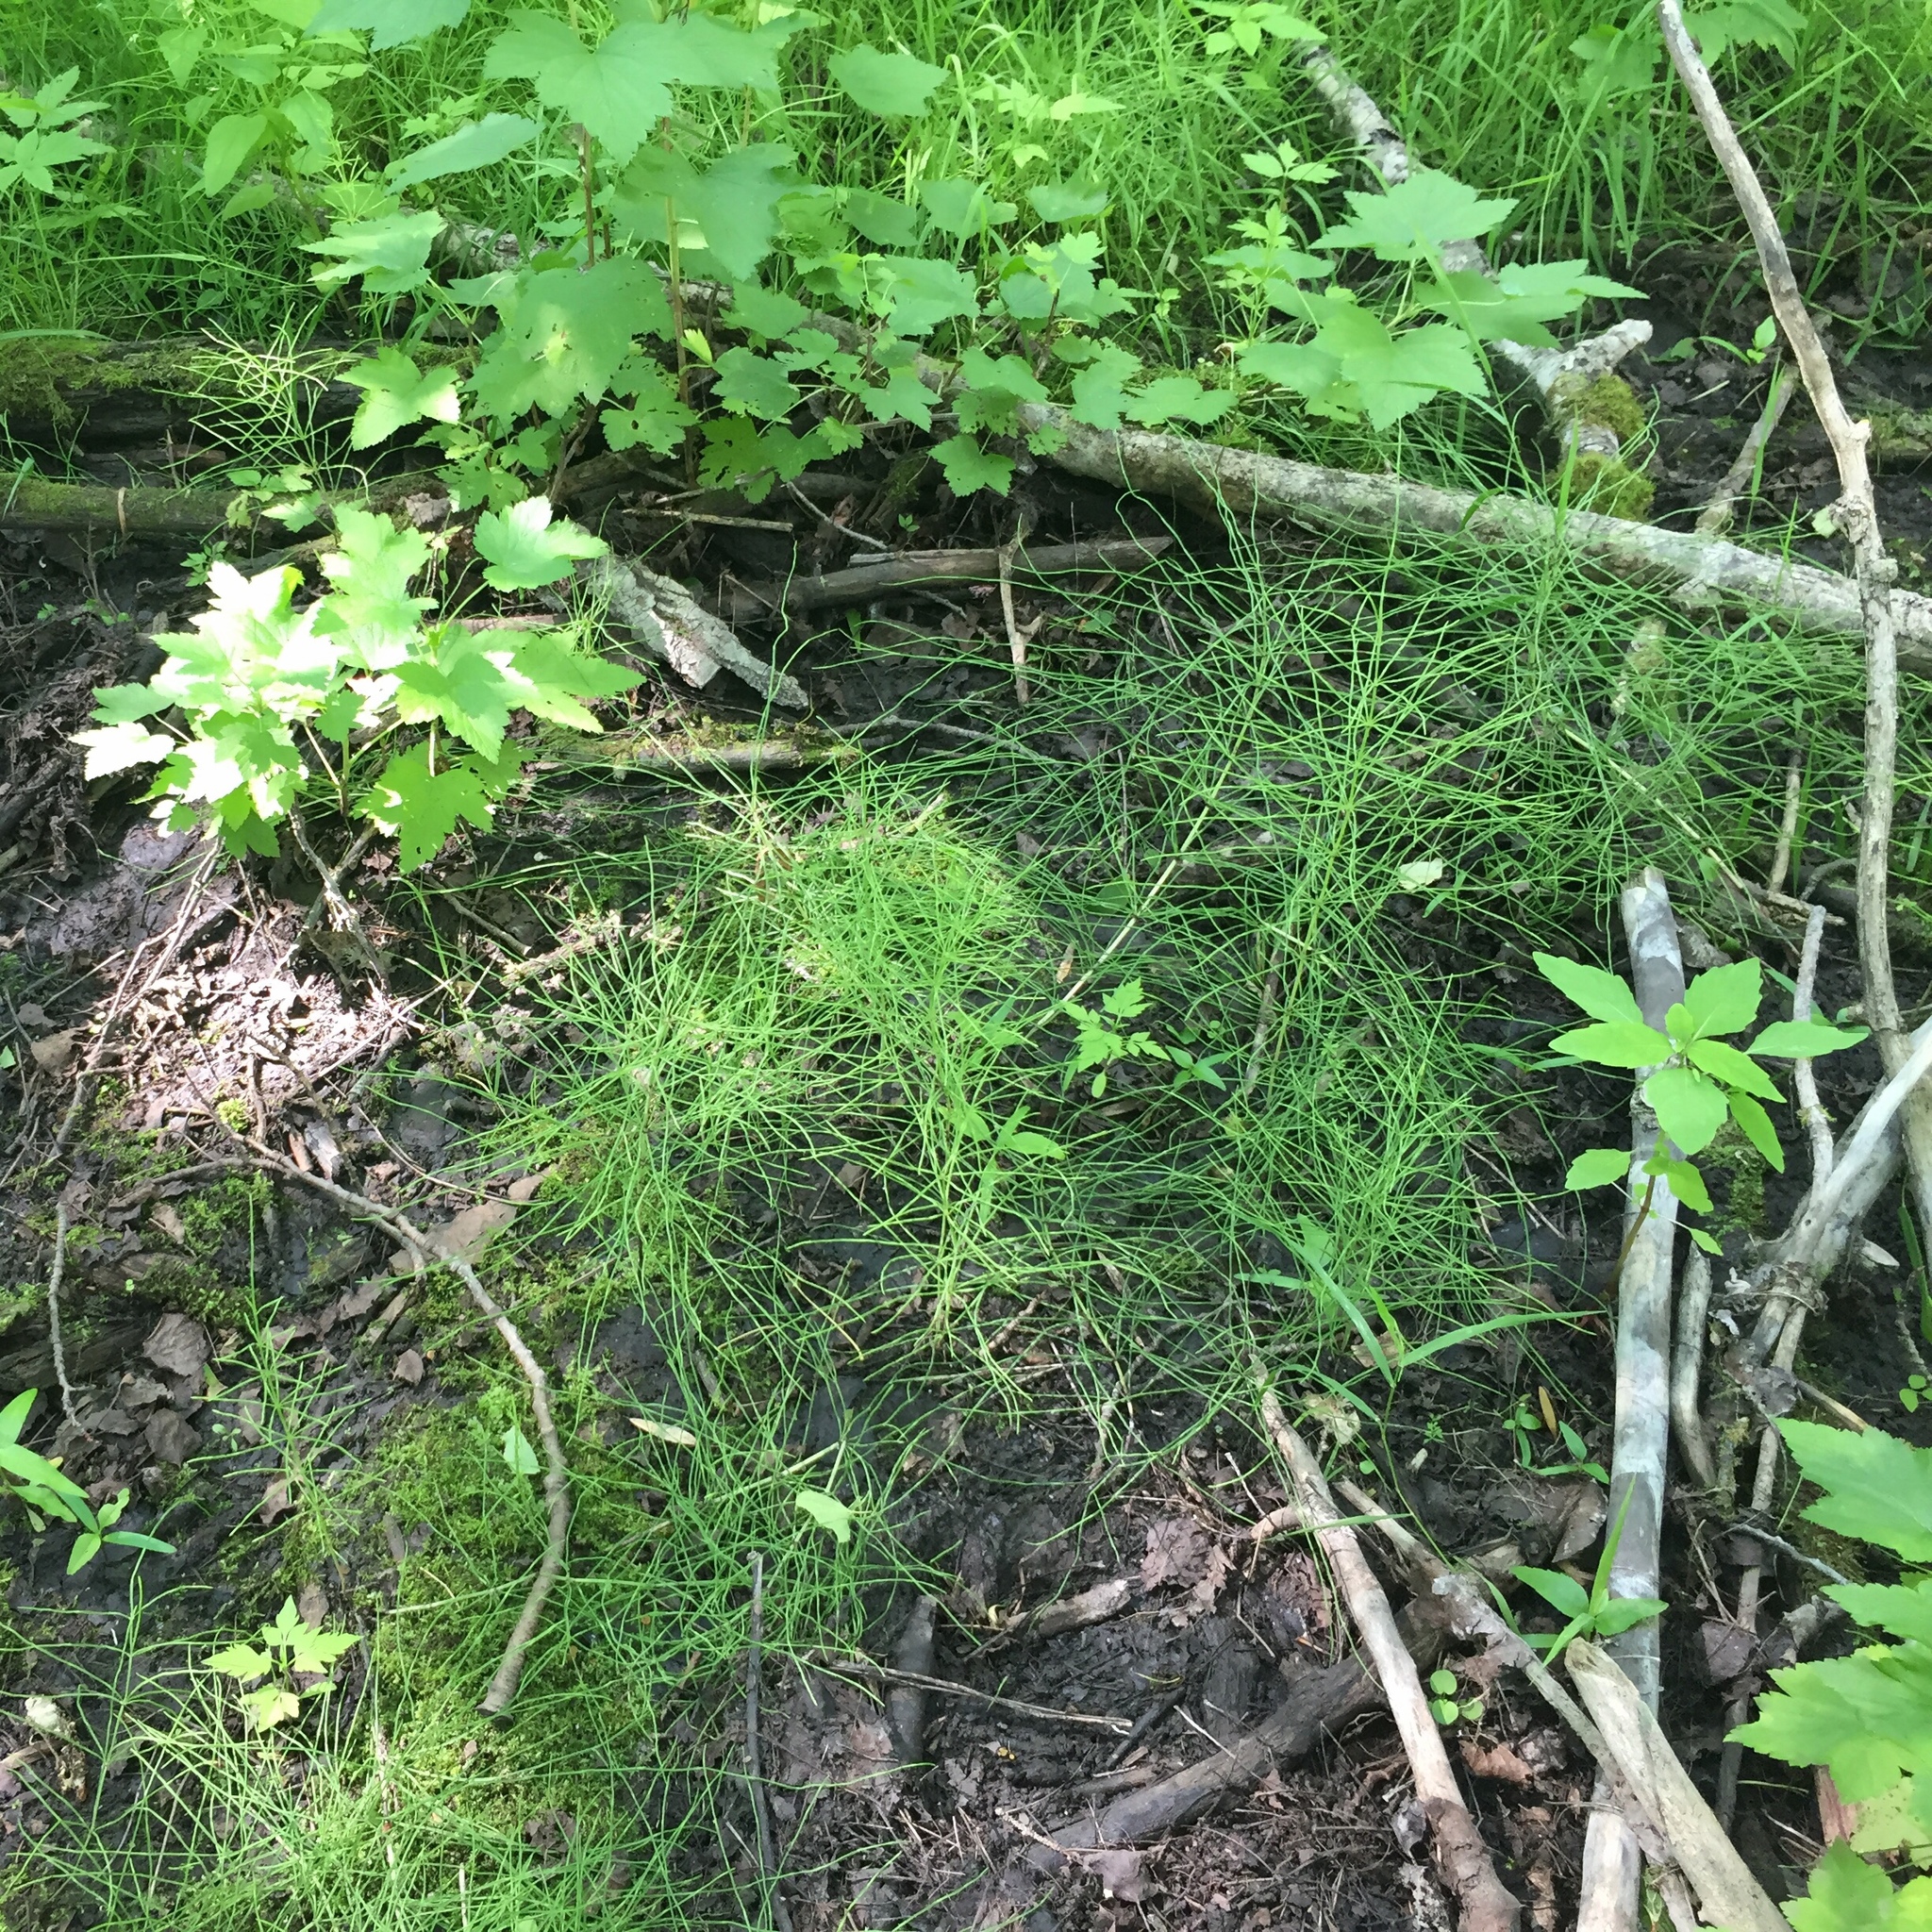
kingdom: Plantae
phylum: Tracheophyta
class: Polypodiopsida
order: Equisetales
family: Equisetaceae
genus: Equisetum
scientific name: Equisetum arvense
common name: Field horsetail
